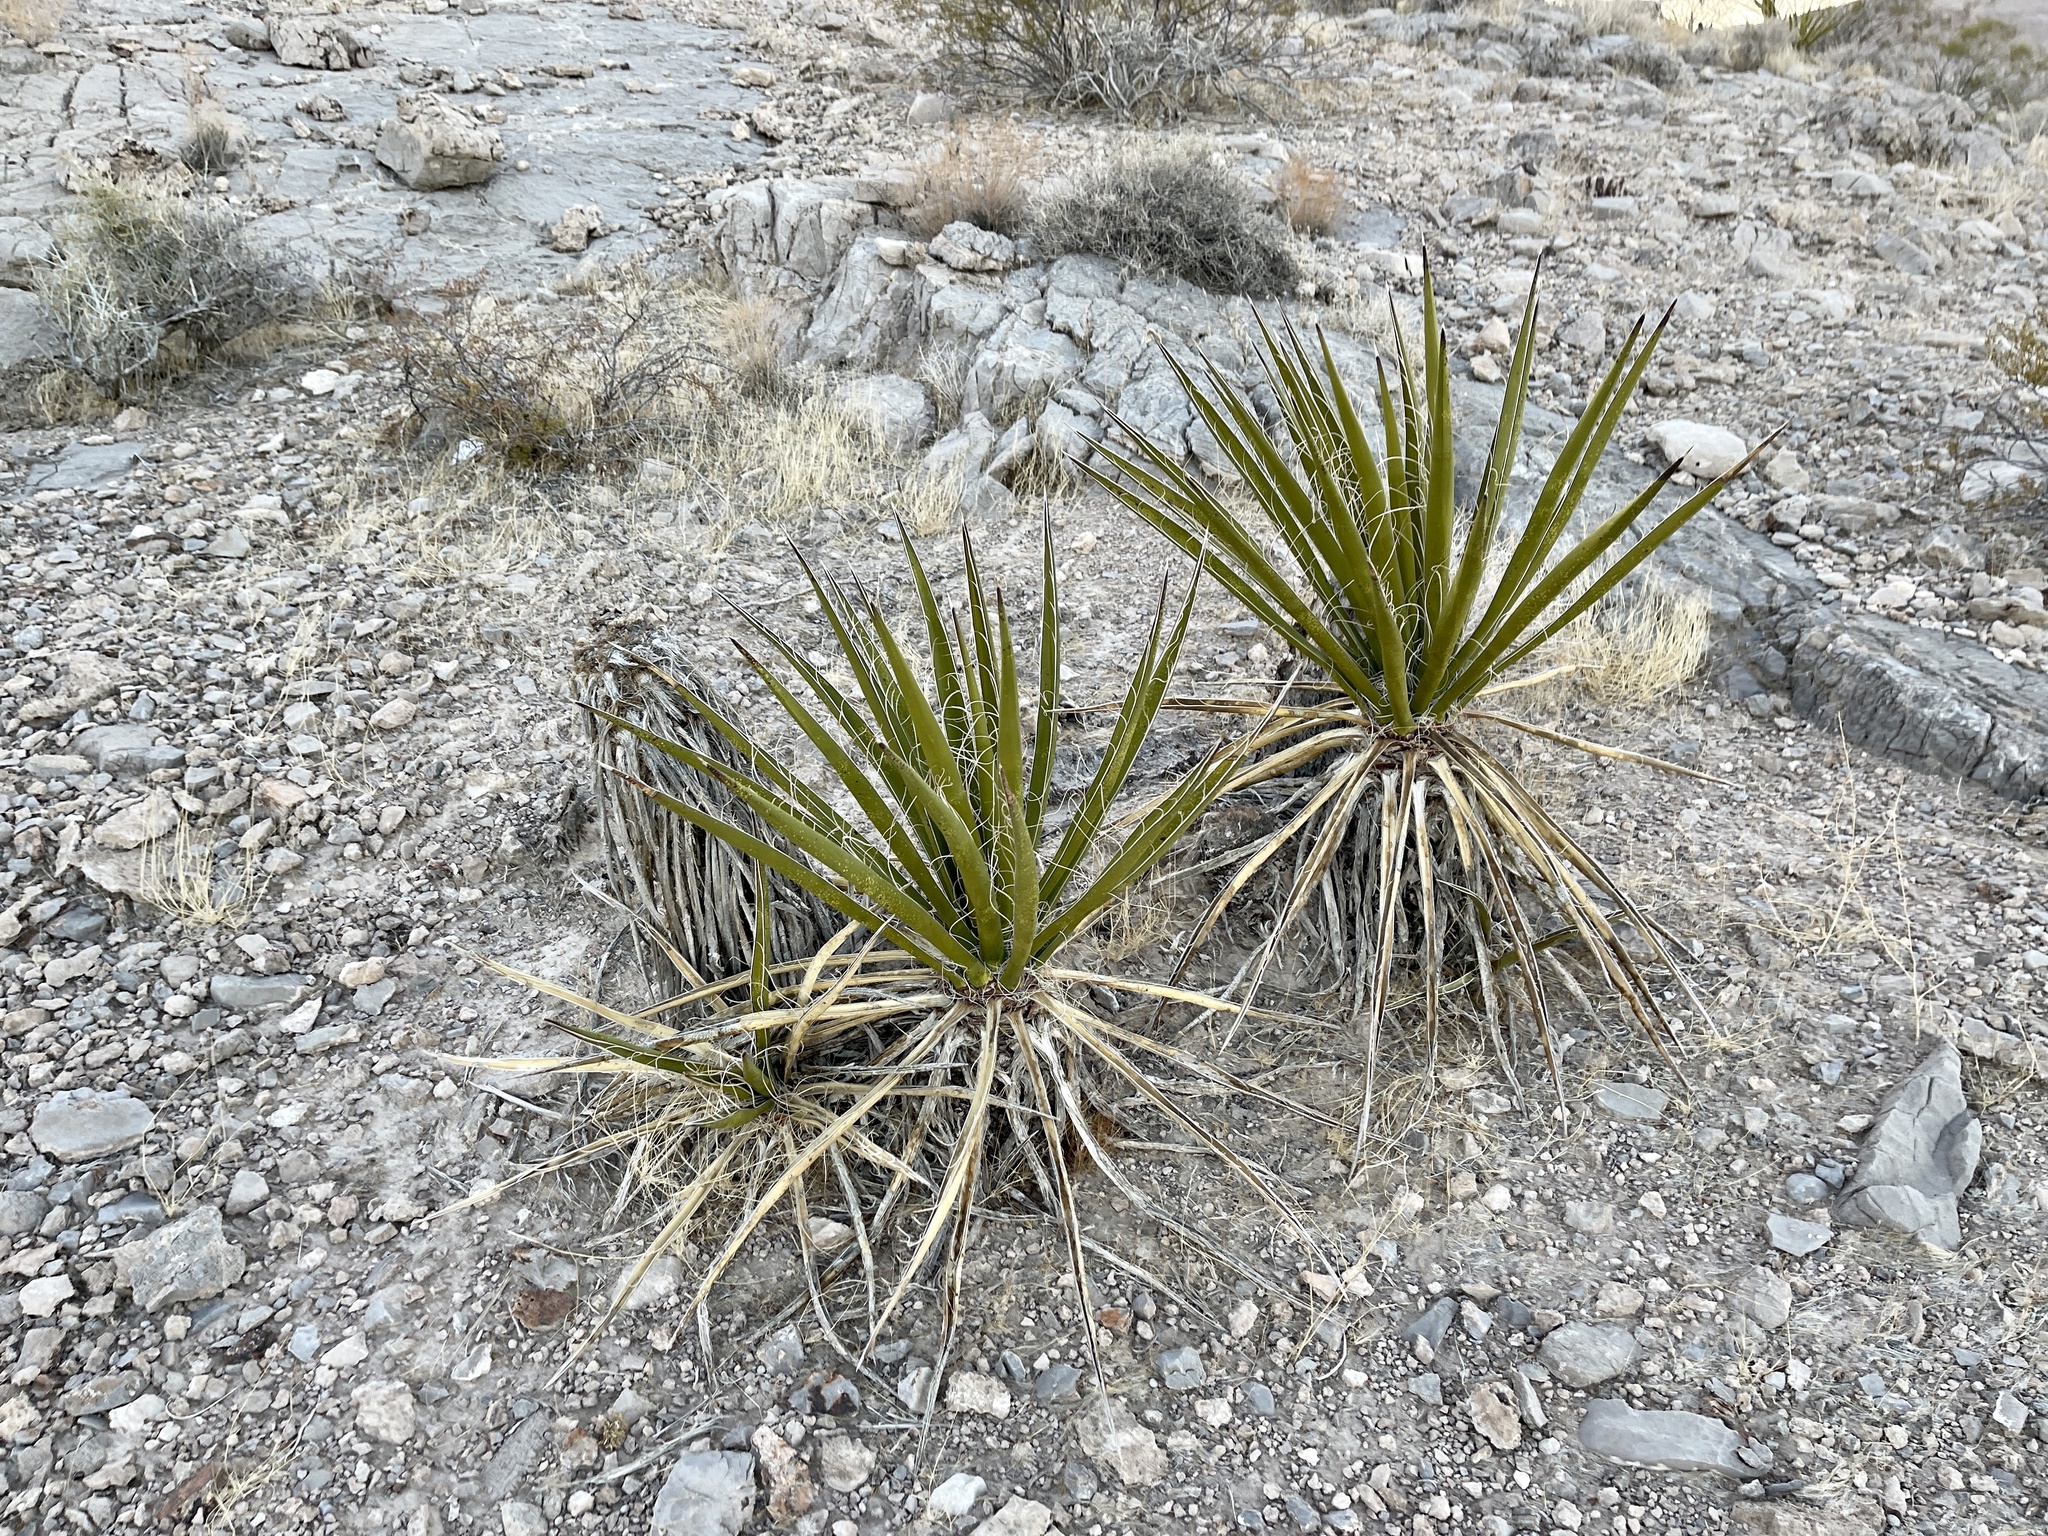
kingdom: Plantae
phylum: Tracheophyta
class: Liliopsida
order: Asparagales
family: Asparagaceae
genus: Yucca
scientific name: Yucca schidigera
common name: Mojave yucca
